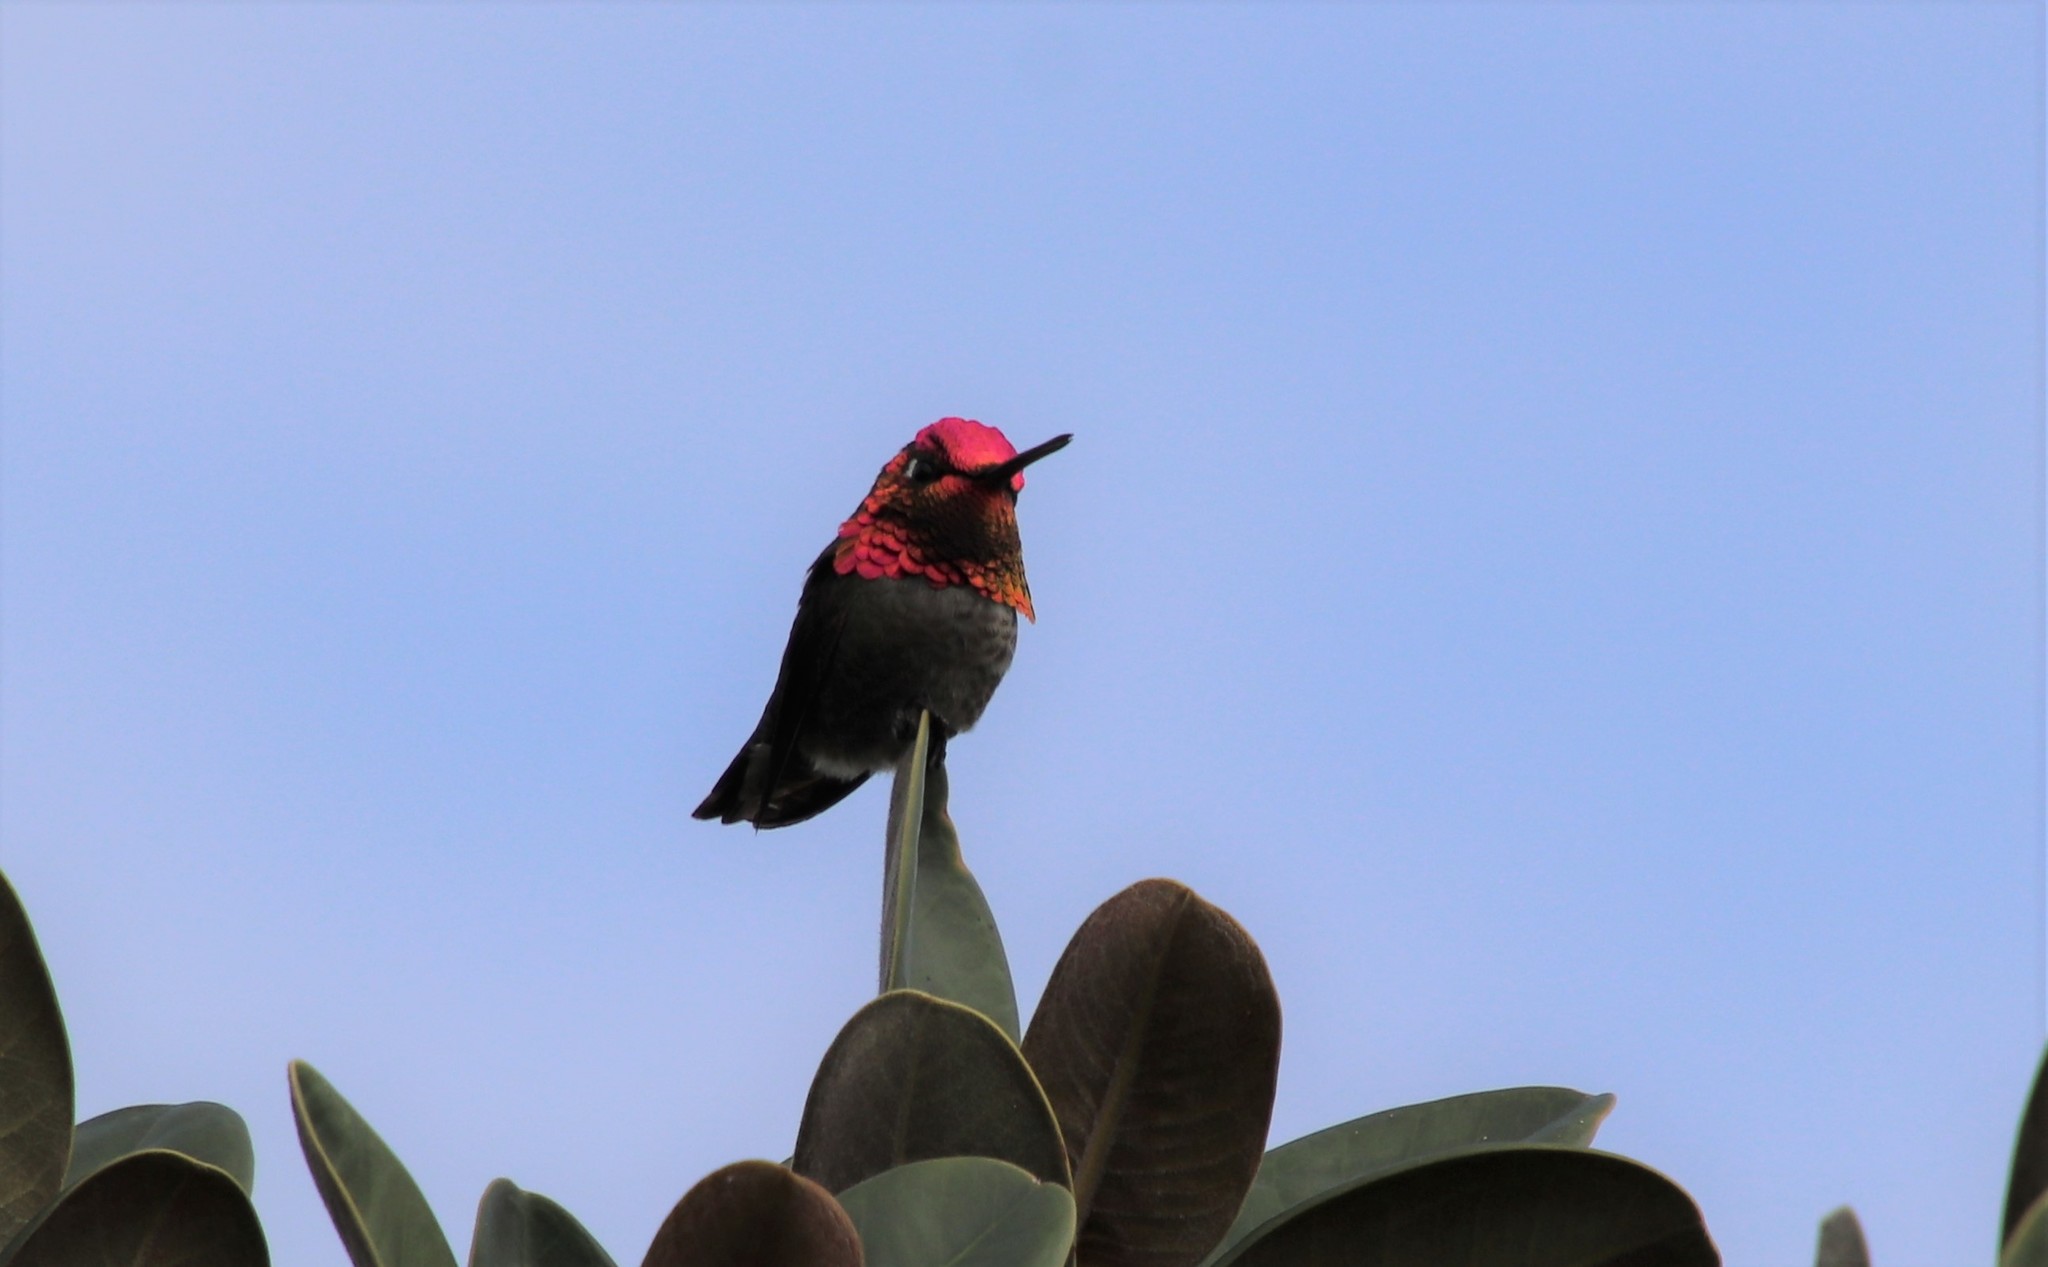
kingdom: Animalia
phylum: Chordata
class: Aves
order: Apodiformes
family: Trochilidae
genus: Calypte
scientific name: Calypte anna
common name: Anna's hummingbird
